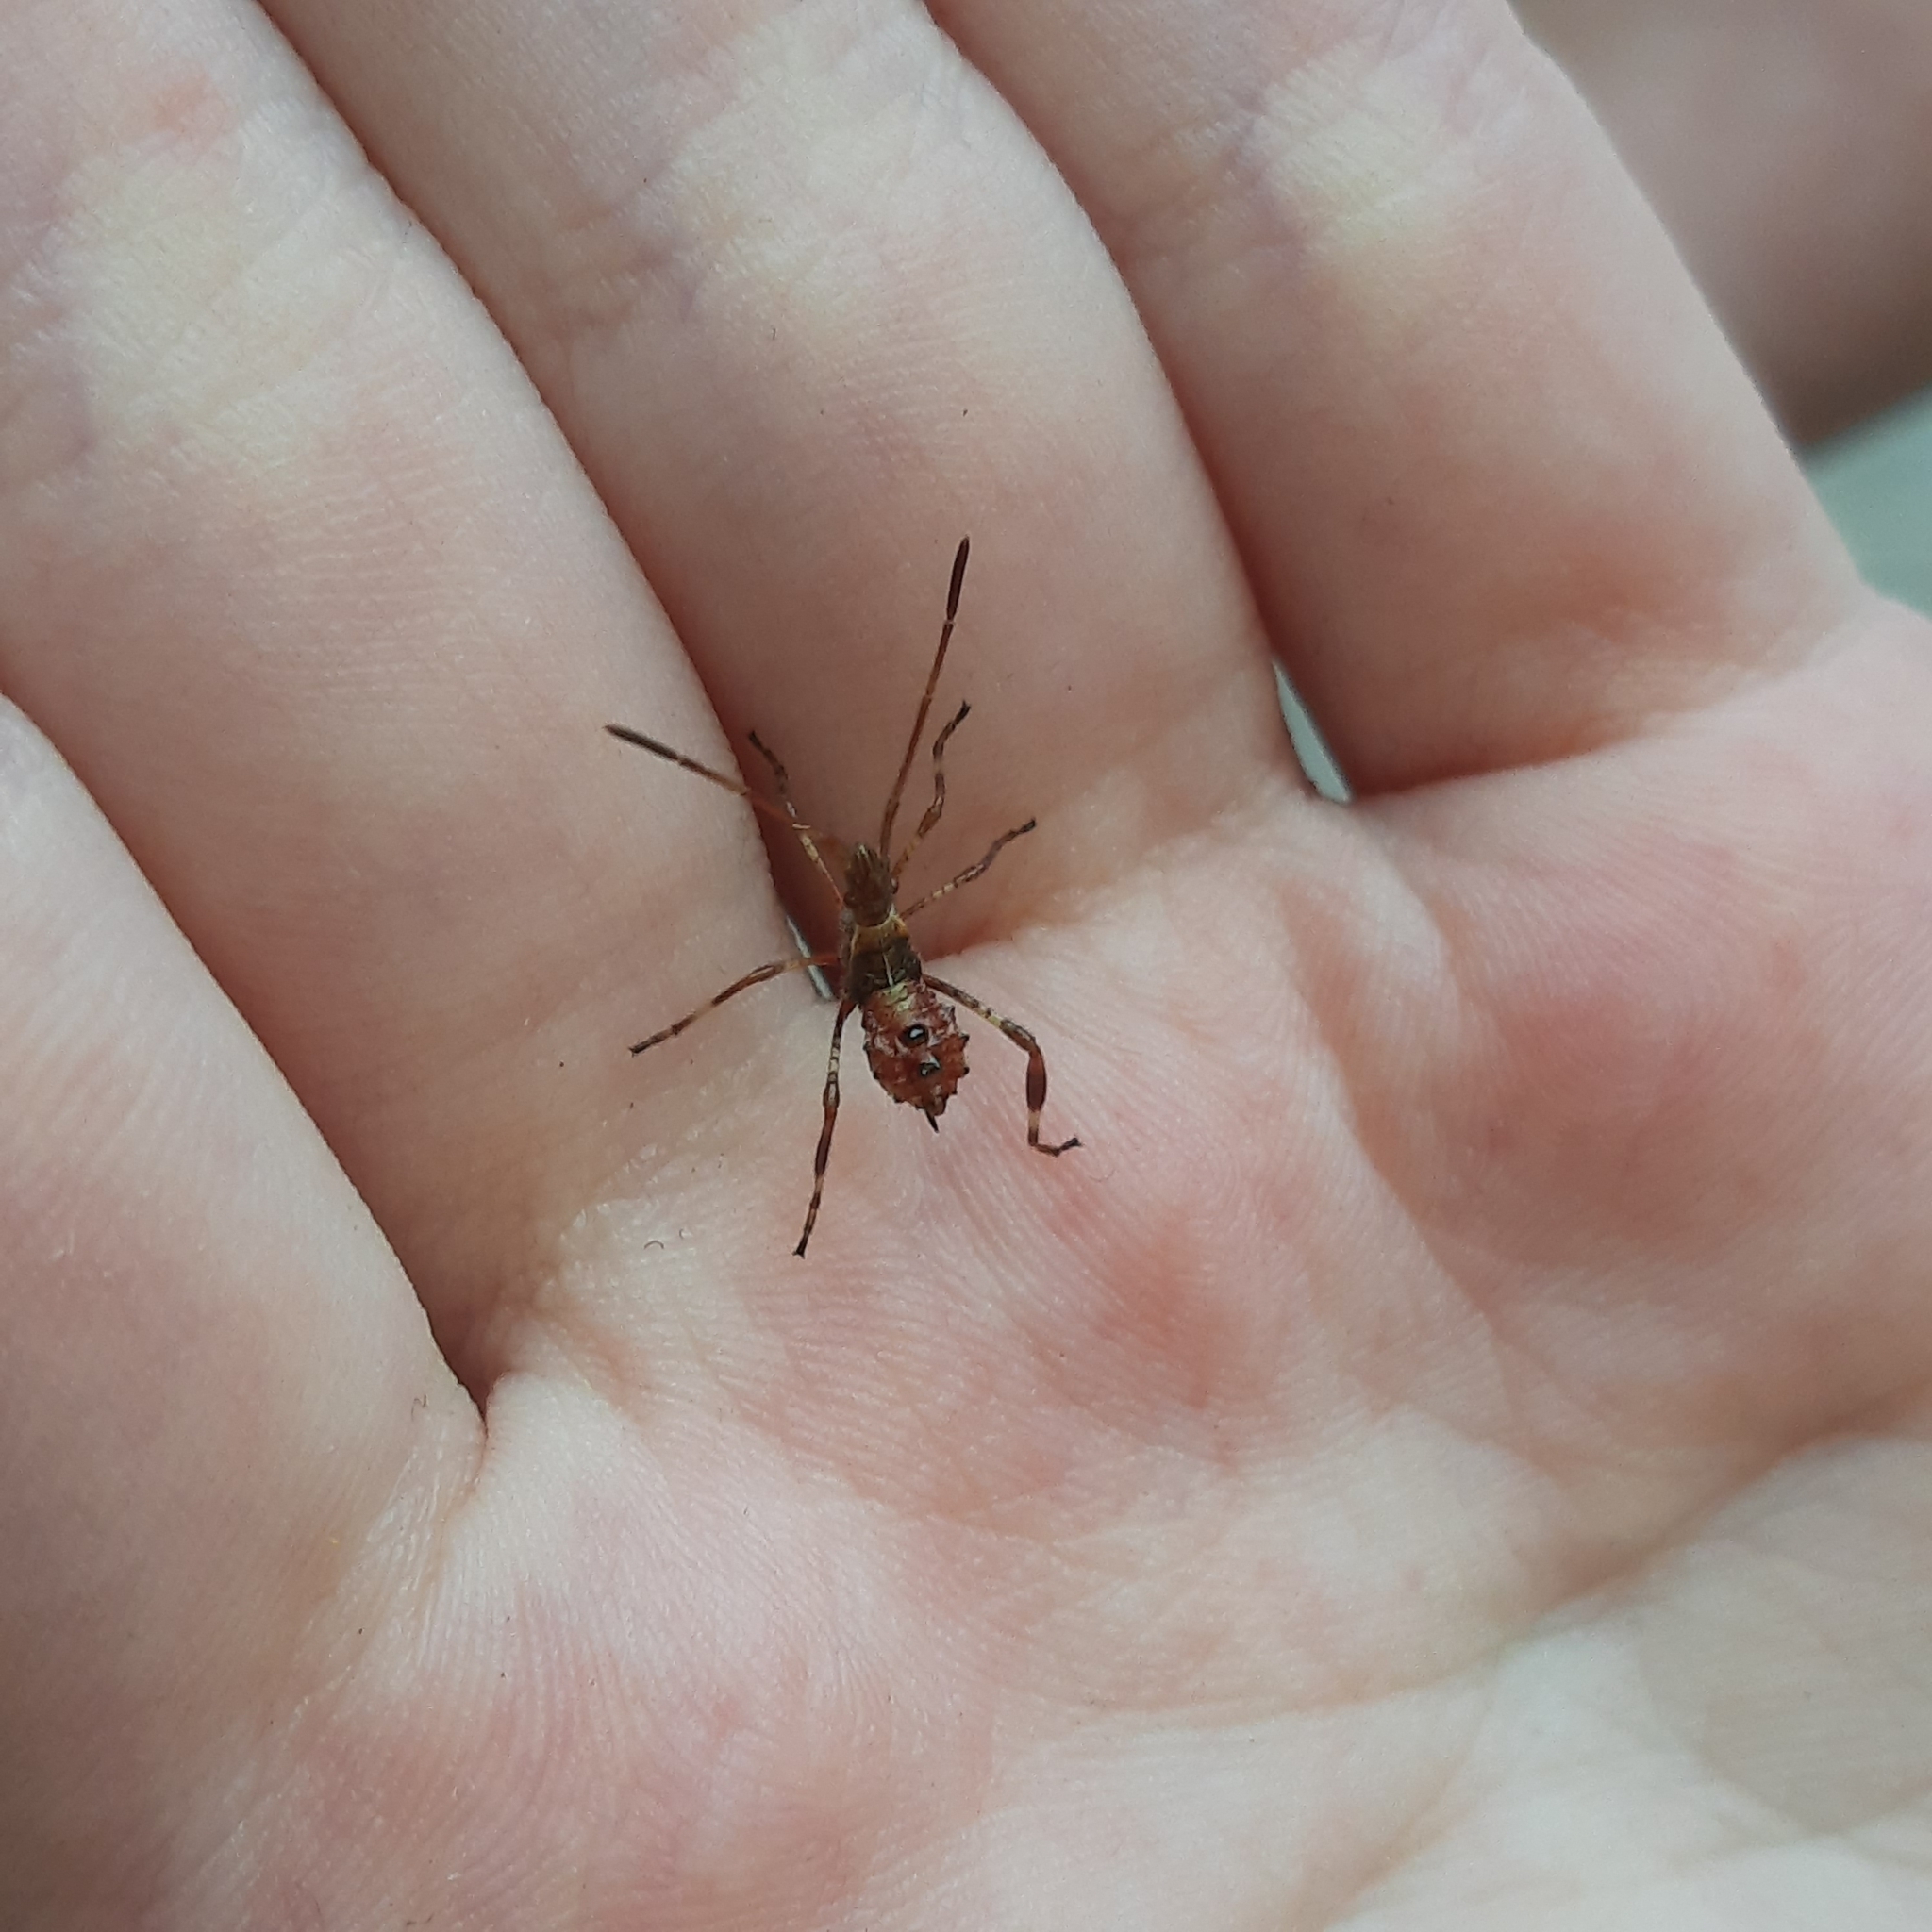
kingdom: Animalia
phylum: Arthropoda
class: Insecta
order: Hemiptera
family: Coreidae
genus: Leptoglossus
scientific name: Leptoglossus occidentalis
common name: Western conifer-seed bug
